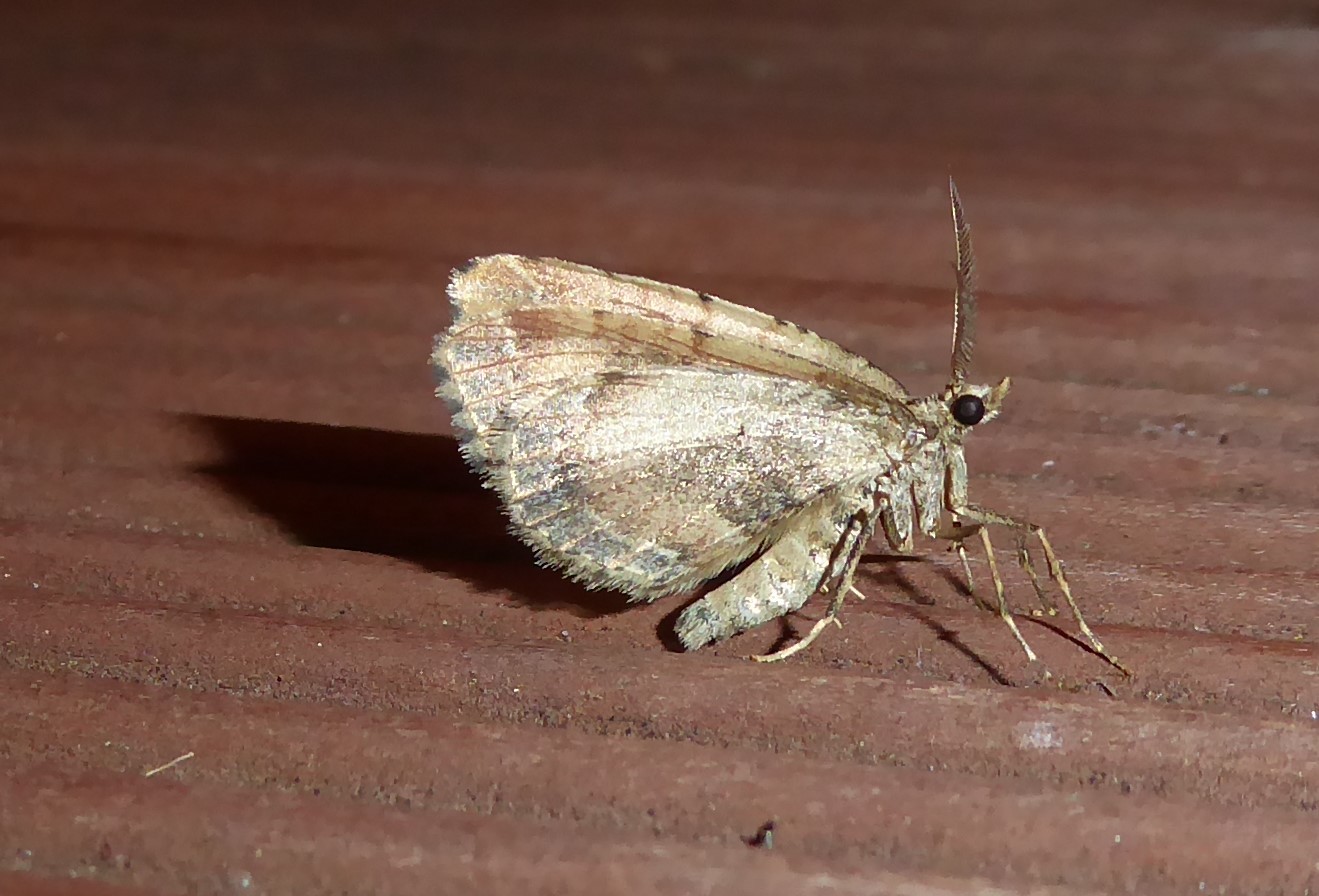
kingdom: Animalia
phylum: Arthropoda
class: Insecta
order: Lepidoptera
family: Geometridae
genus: Asaphodes
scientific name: Asaphodes aegrota
